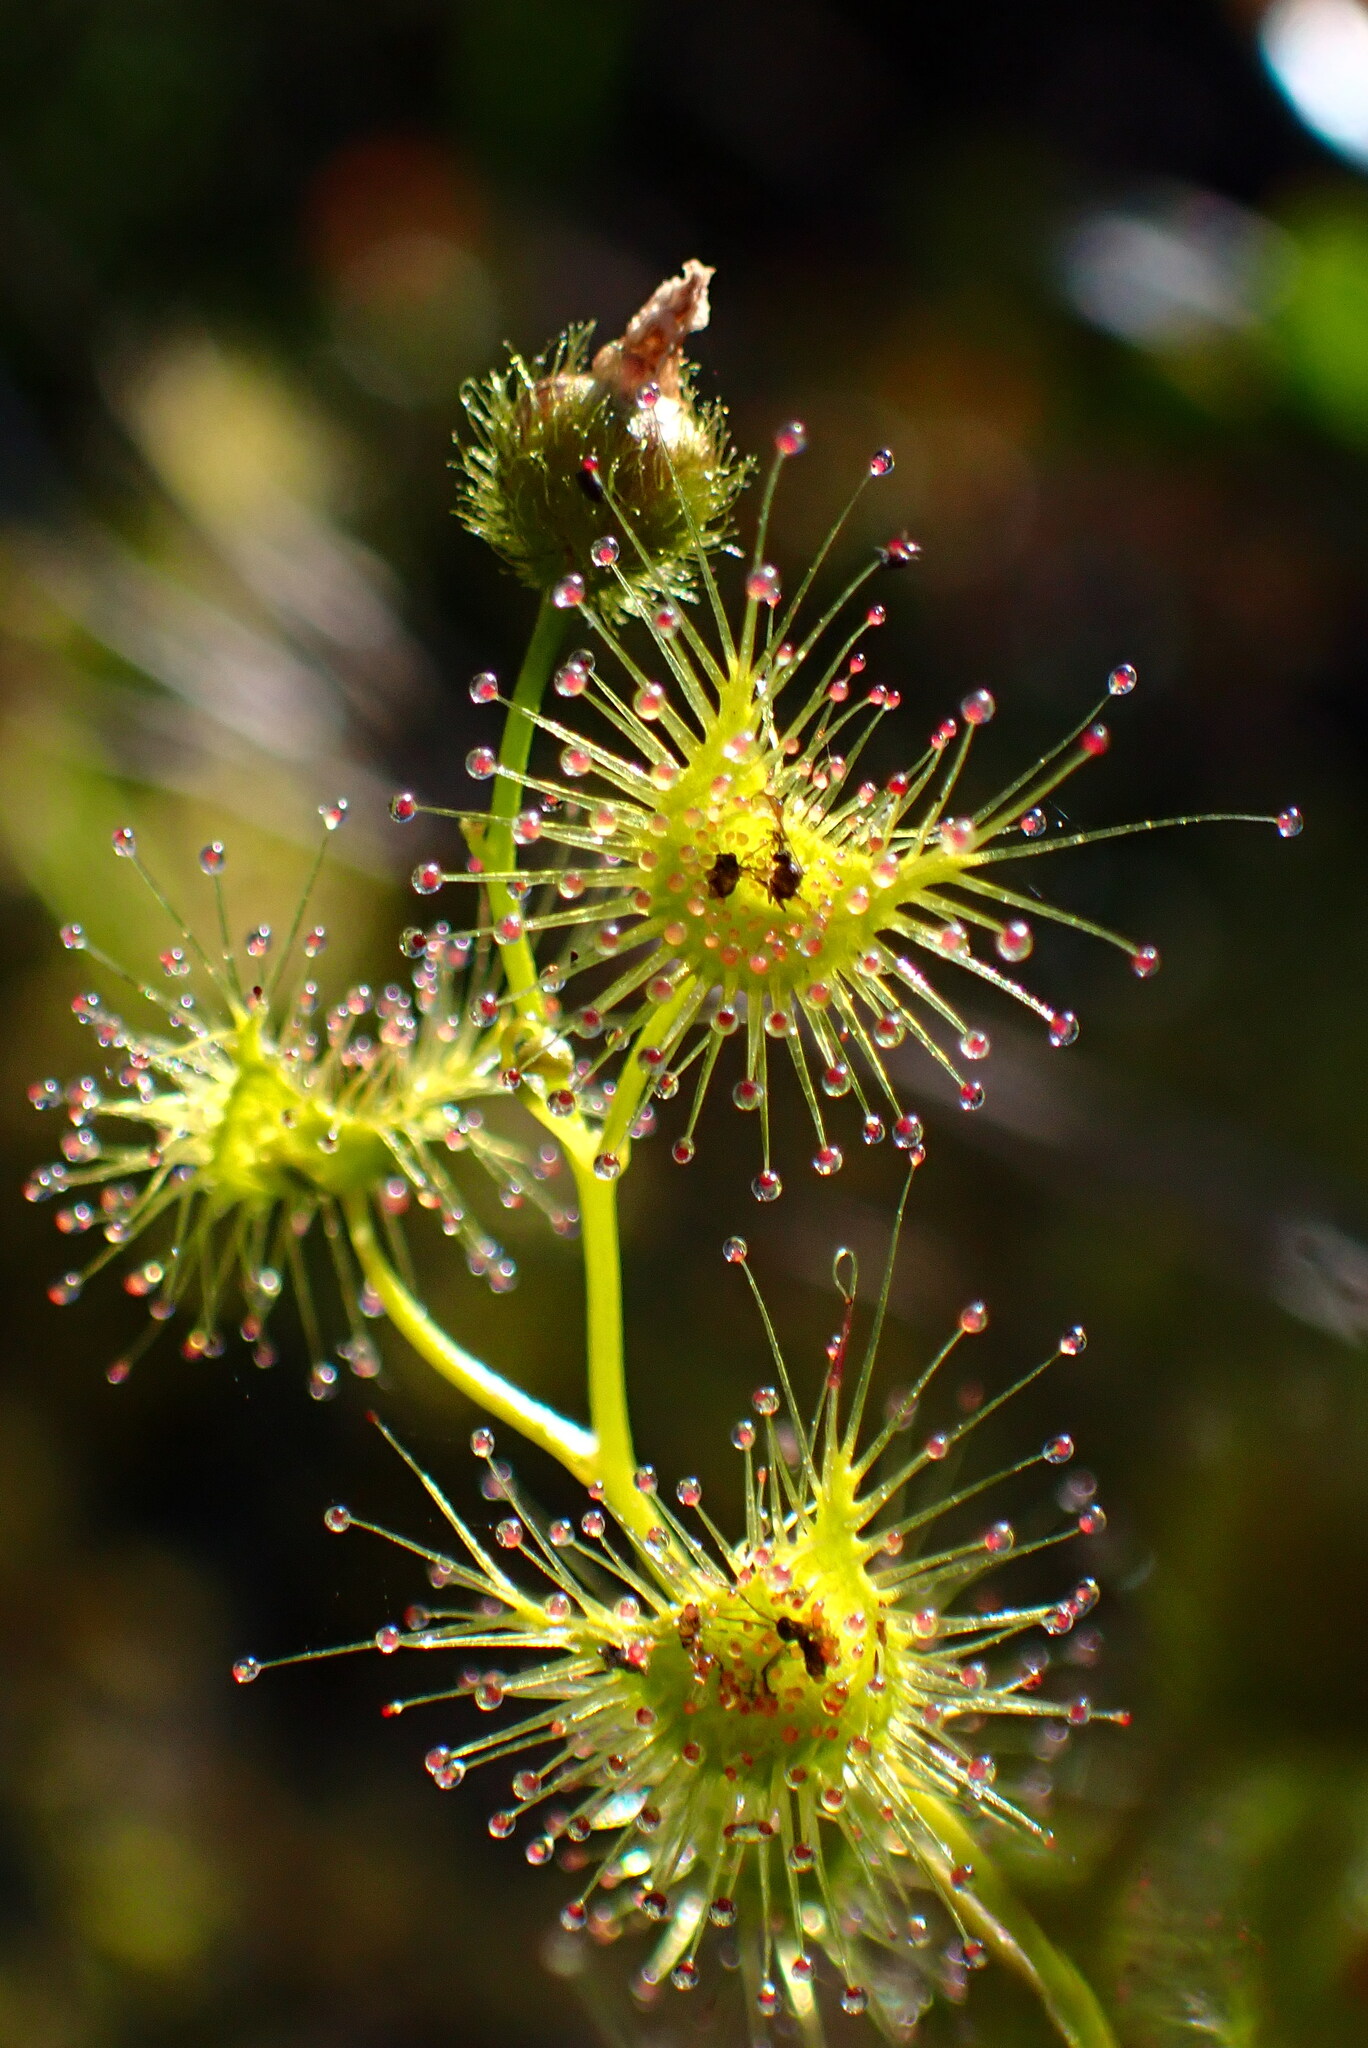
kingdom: Plantae
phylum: Tracheophyta
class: Magnoliopsida
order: Caryophyllales
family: Droseraceae
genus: Drosera
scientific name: Drosera gunniana
